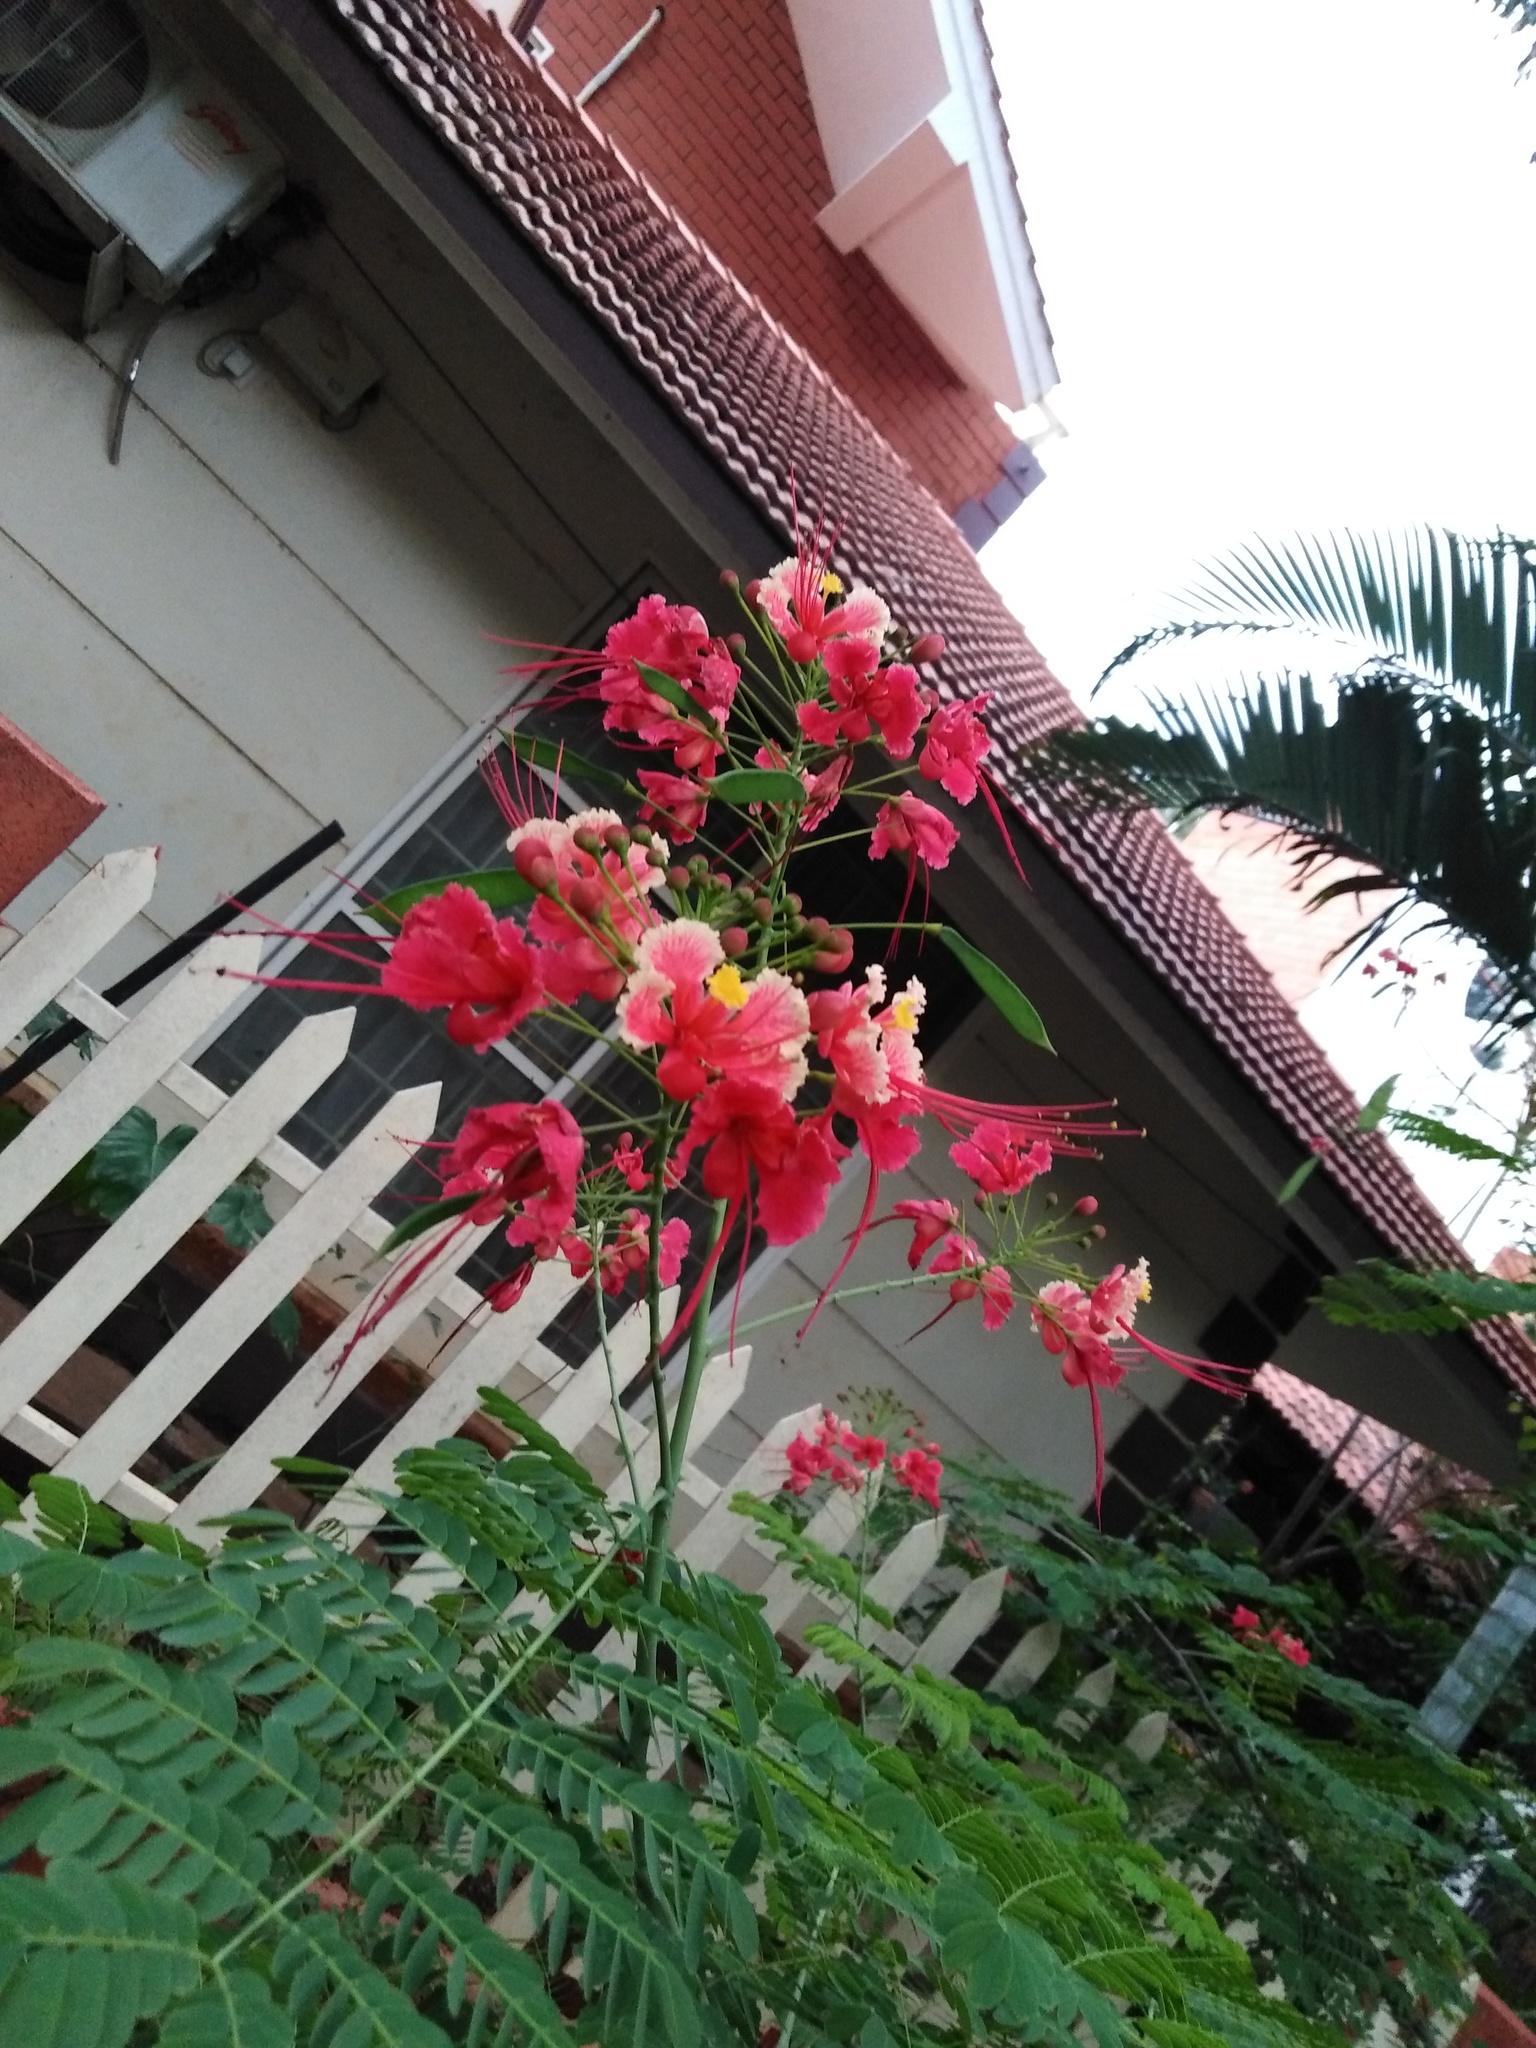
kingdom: Plantae
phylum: Tracheophyta
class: Magnoliopsida
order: Fabales
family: Fabaceae
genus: Caesalpinia
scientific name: Caesalpinia pulcherrima
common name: Pride-of-barbados
